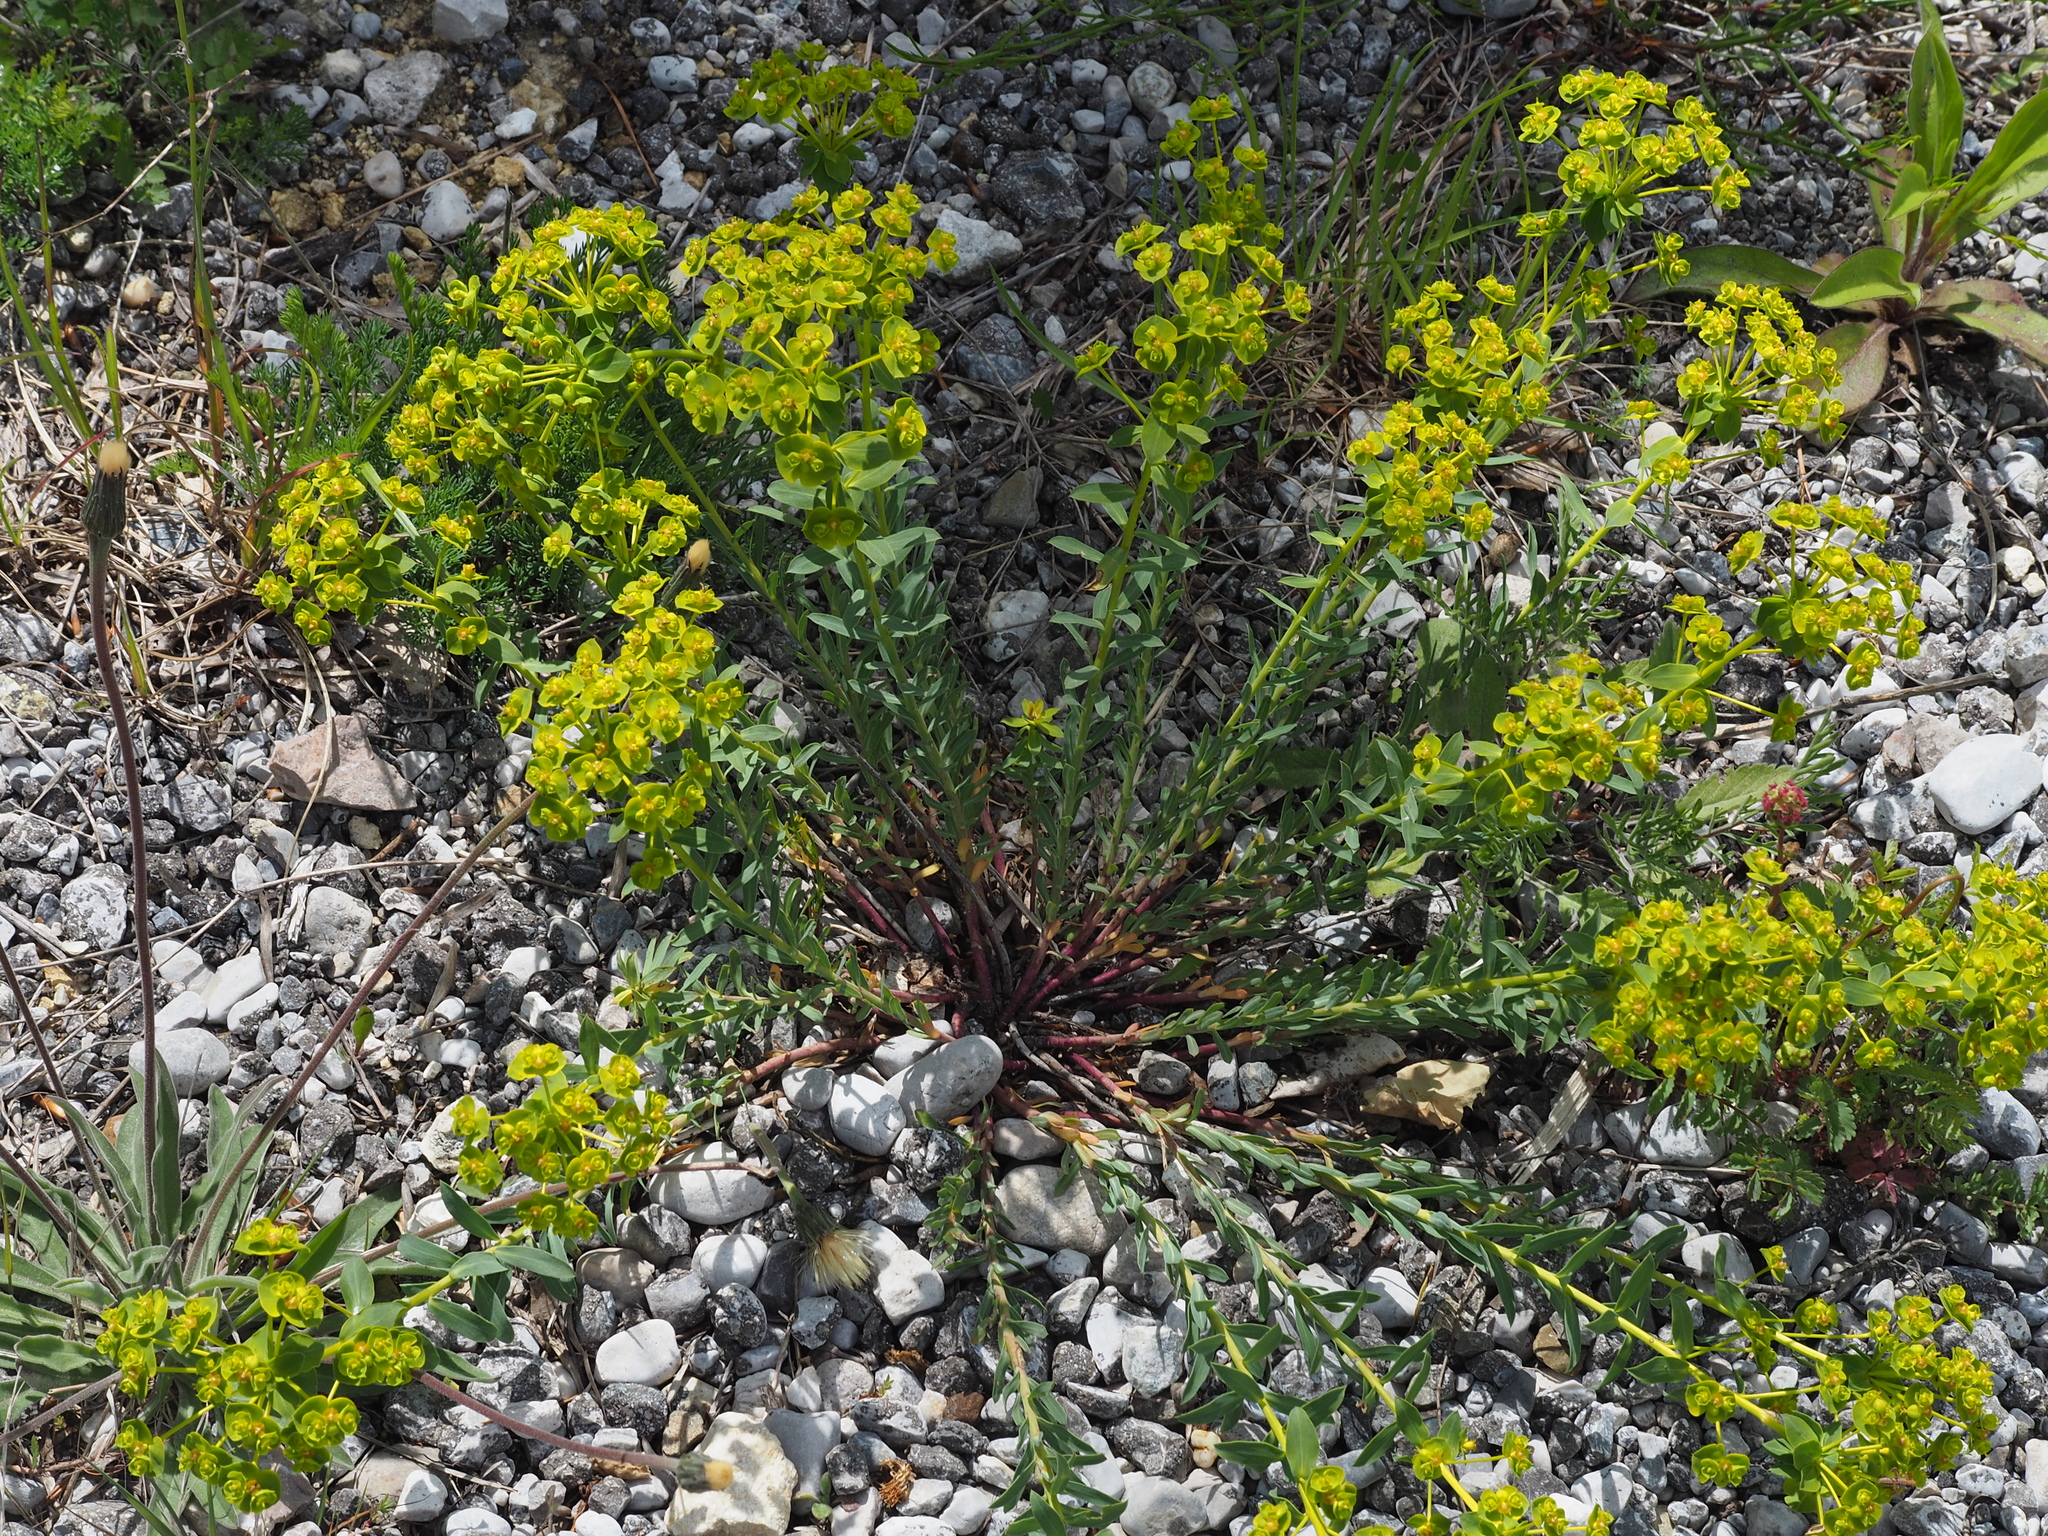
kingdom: Plantae
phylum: Tracheophyta
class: Magnoliopsida
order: Malpighiales
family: Euphorbiaceae
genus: Euphorbia
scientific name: Euphorbia seguieriana
